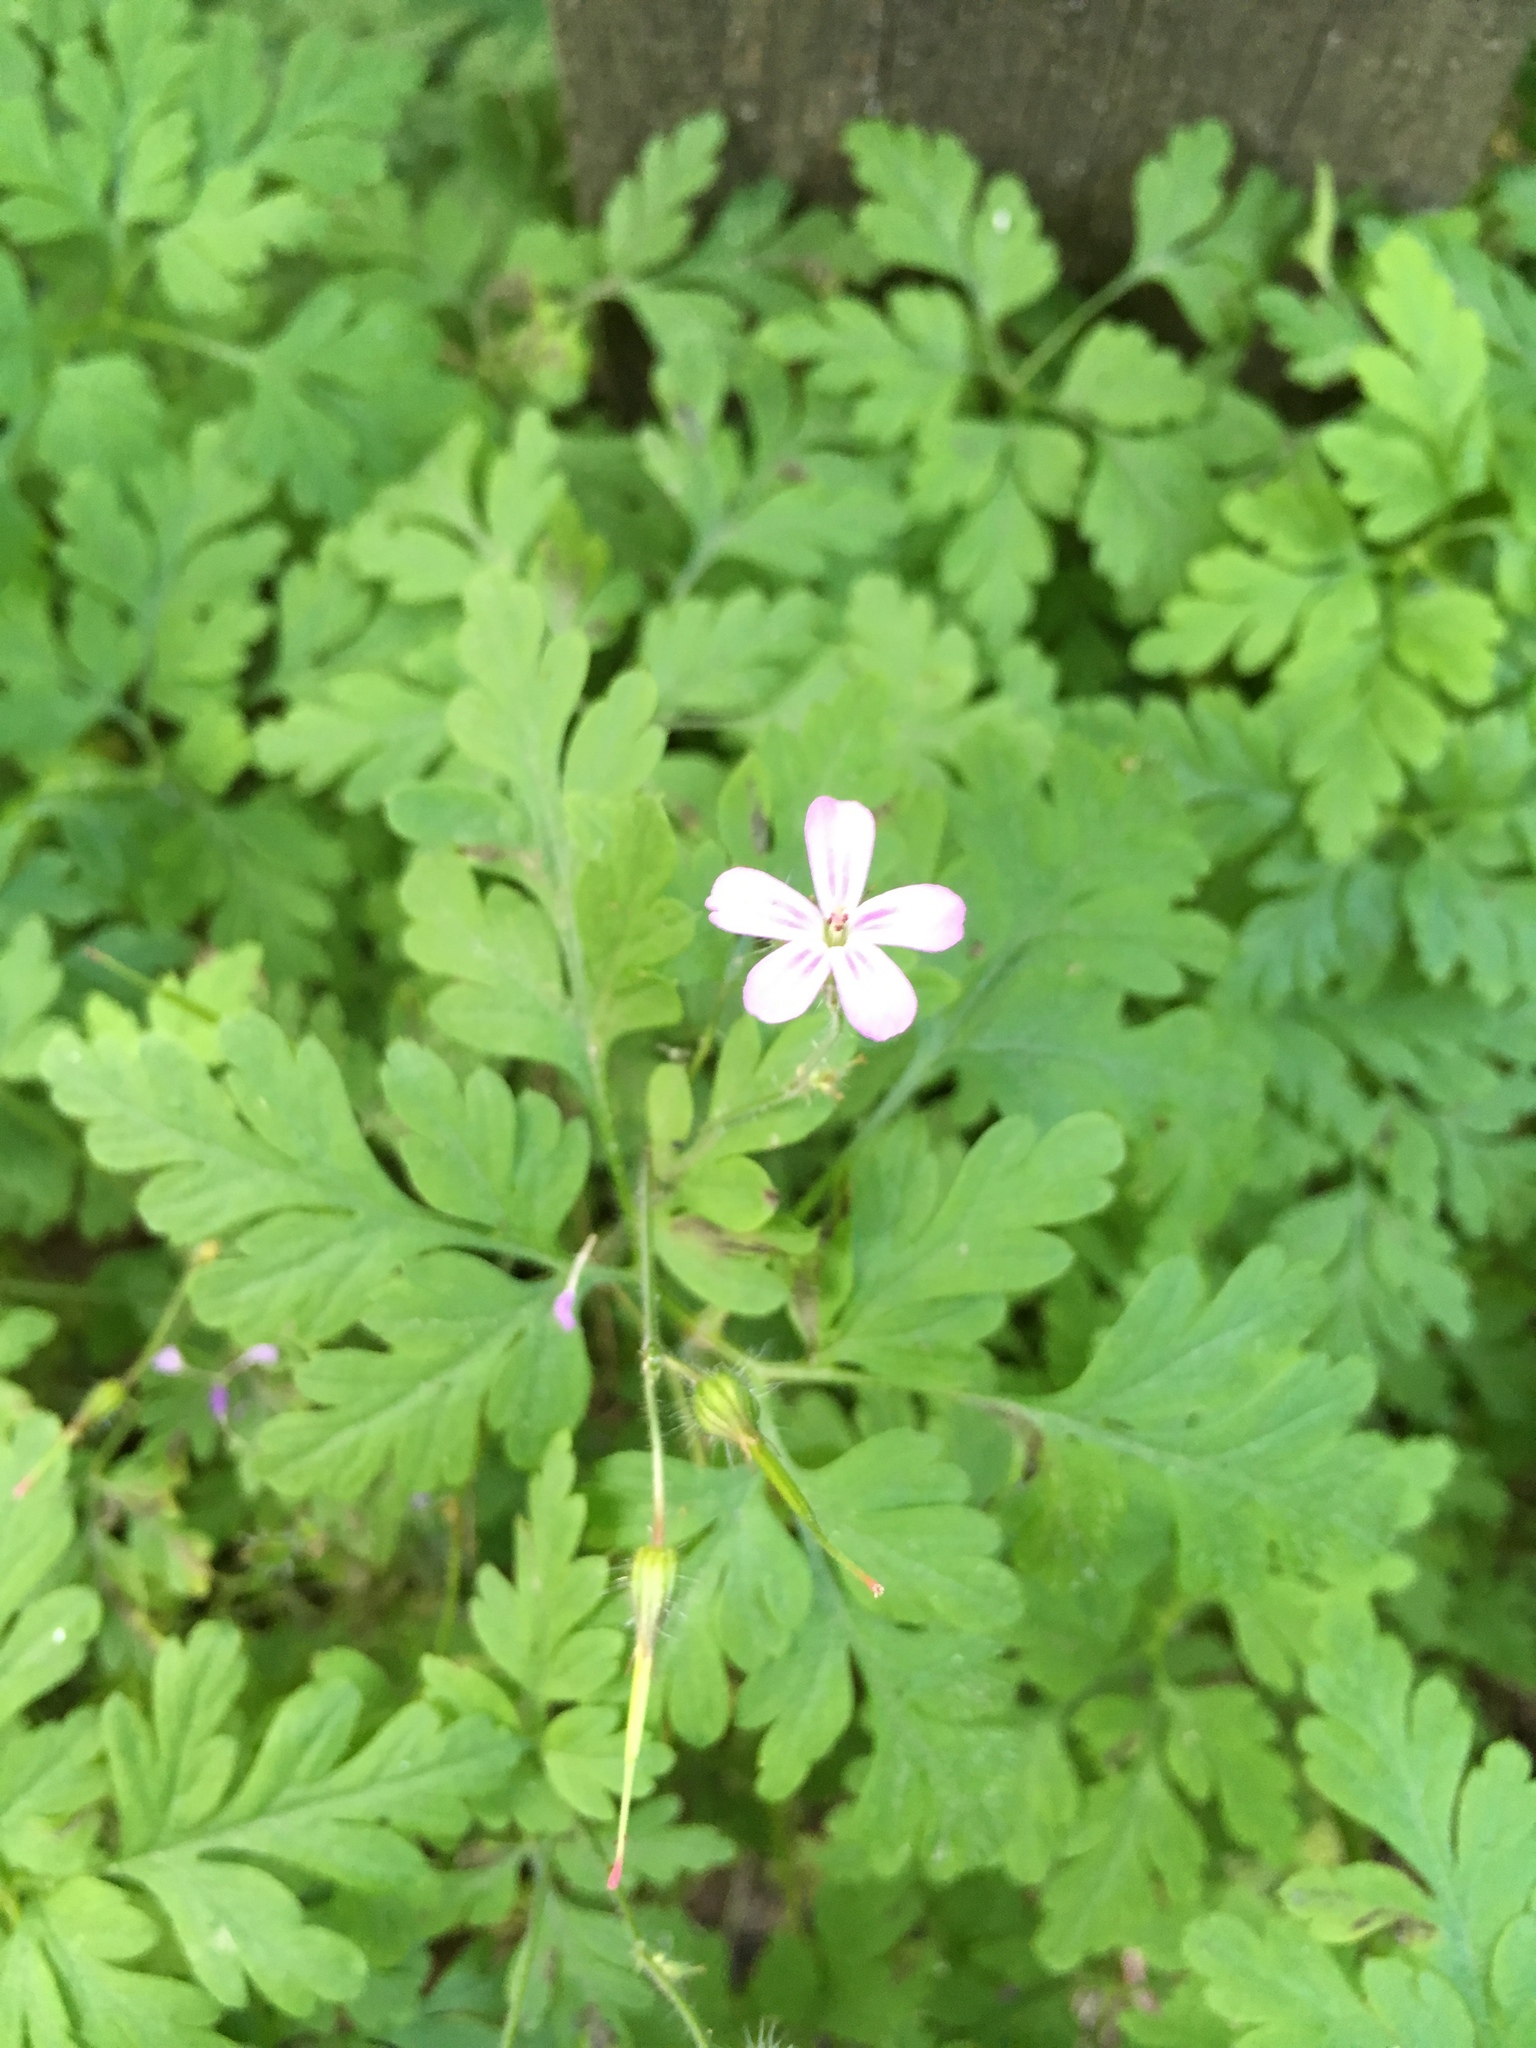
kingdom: Plantae
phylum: Tracheophyta
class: Magnoliopsida
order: Geraniales
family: Geraniaceae
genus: Geranium
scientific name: Geranium robertianum
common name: Herb-robert
